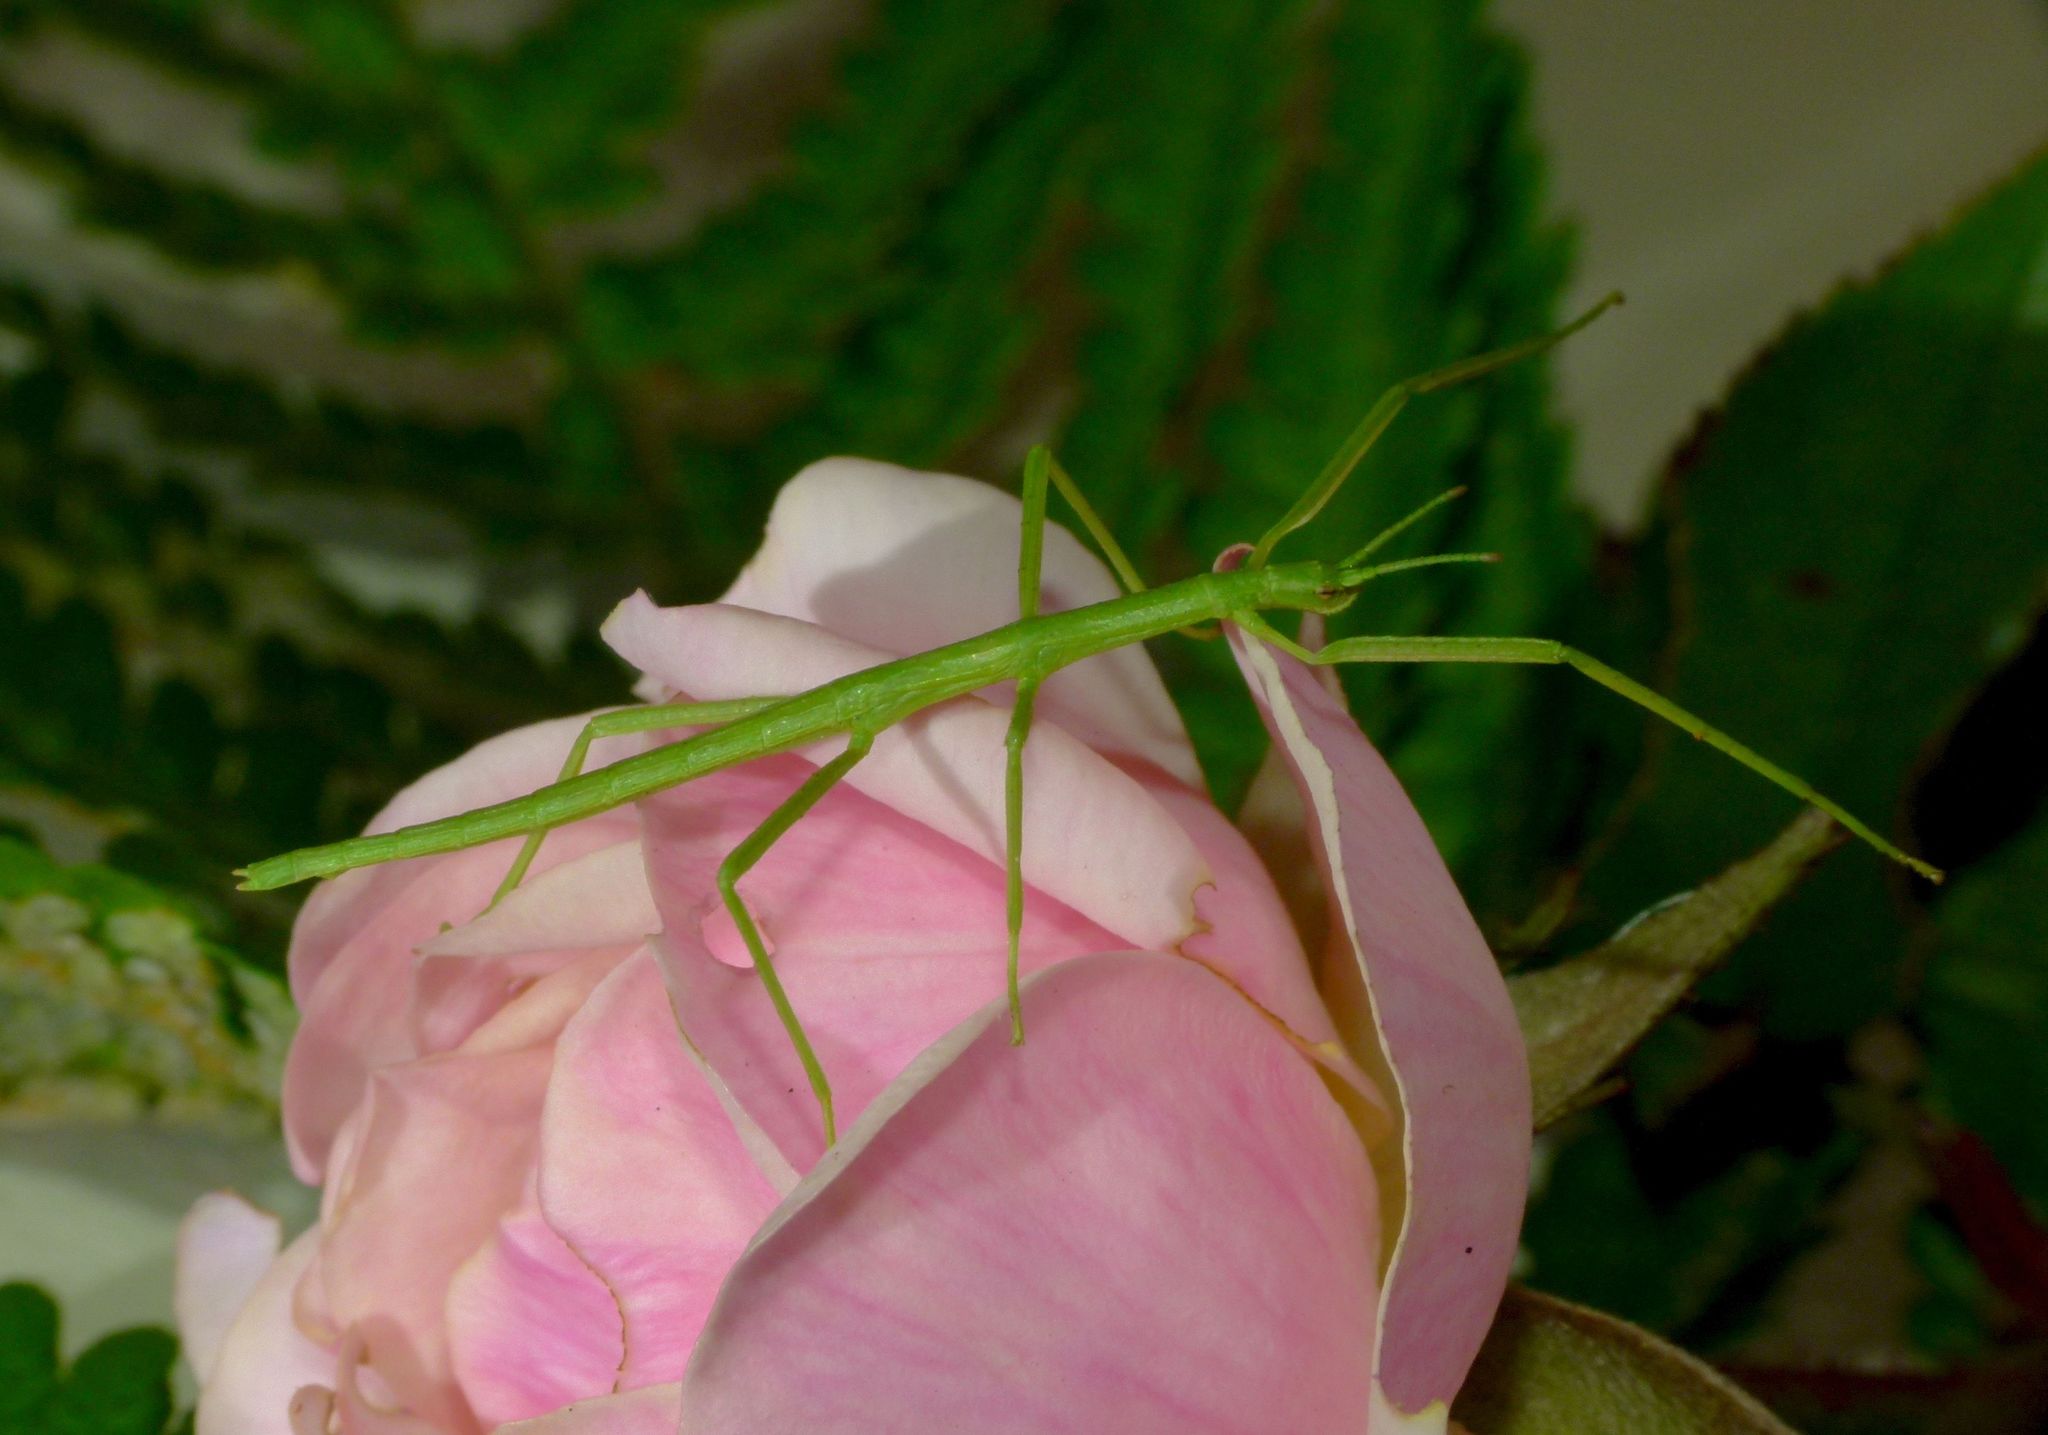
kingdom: Animalia
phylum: Arthropoda
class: Insecta
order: Phasmida
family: Phasmatidae
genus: Clitarchus
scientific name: Clitarchus hookeri
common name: Smooth stick insect
